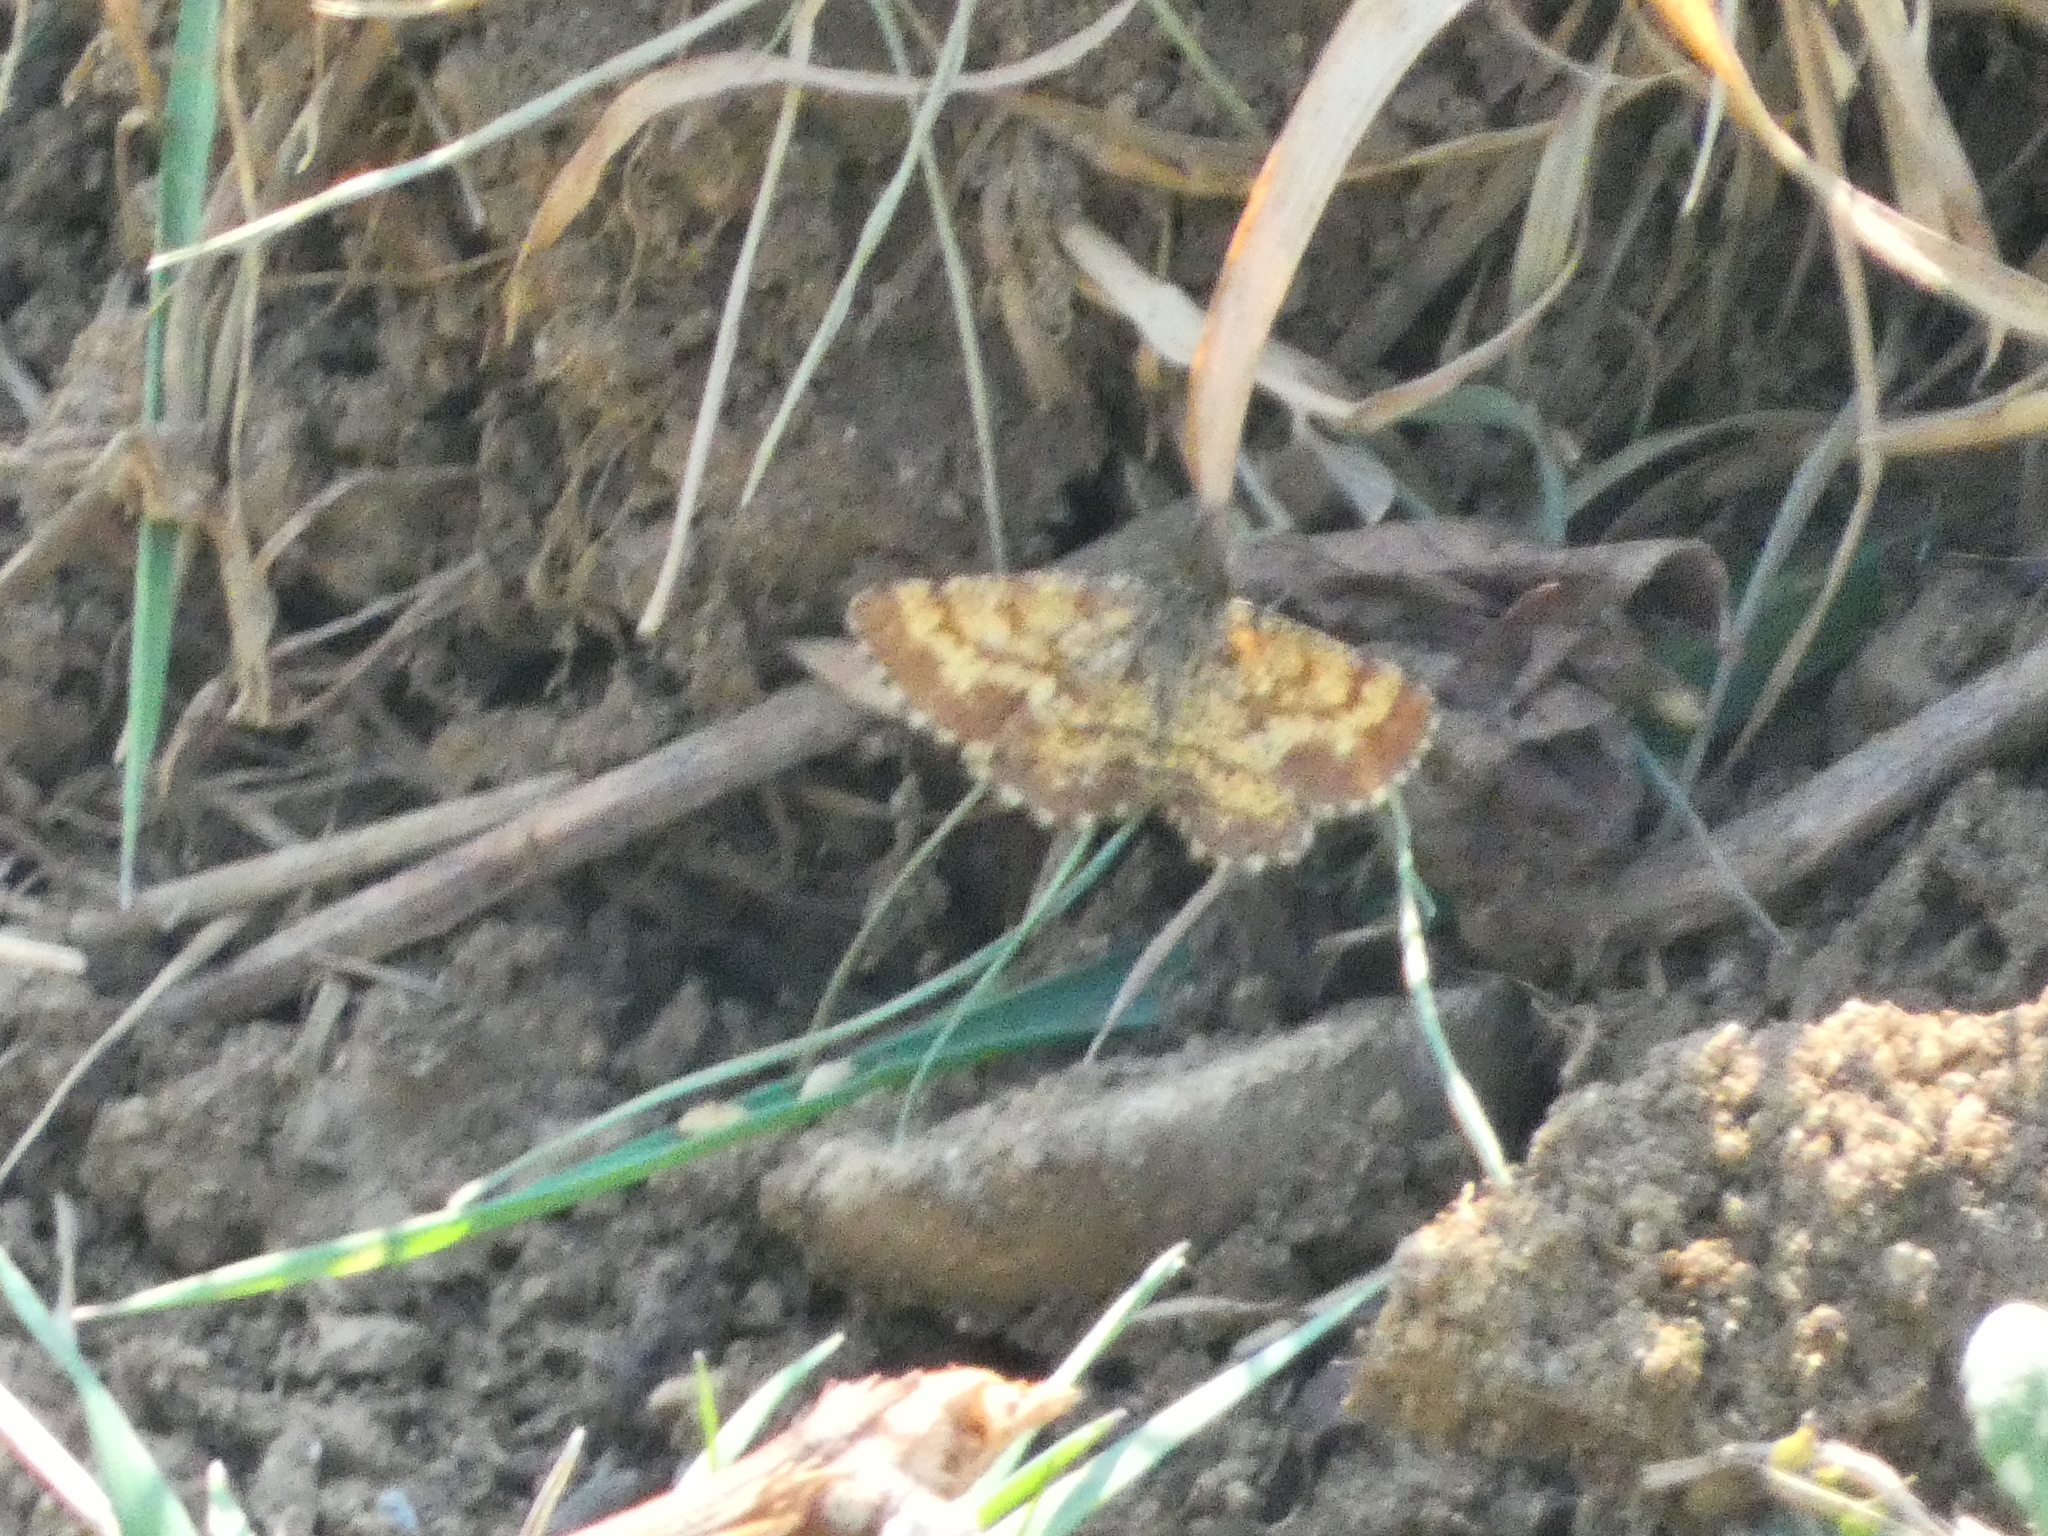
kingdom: Animalia
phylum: Arthropoda
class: Insecta
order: Lepidoptera
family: Geometridae
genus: Ematurga
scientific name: Ematurga atomaria
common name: Common heath
